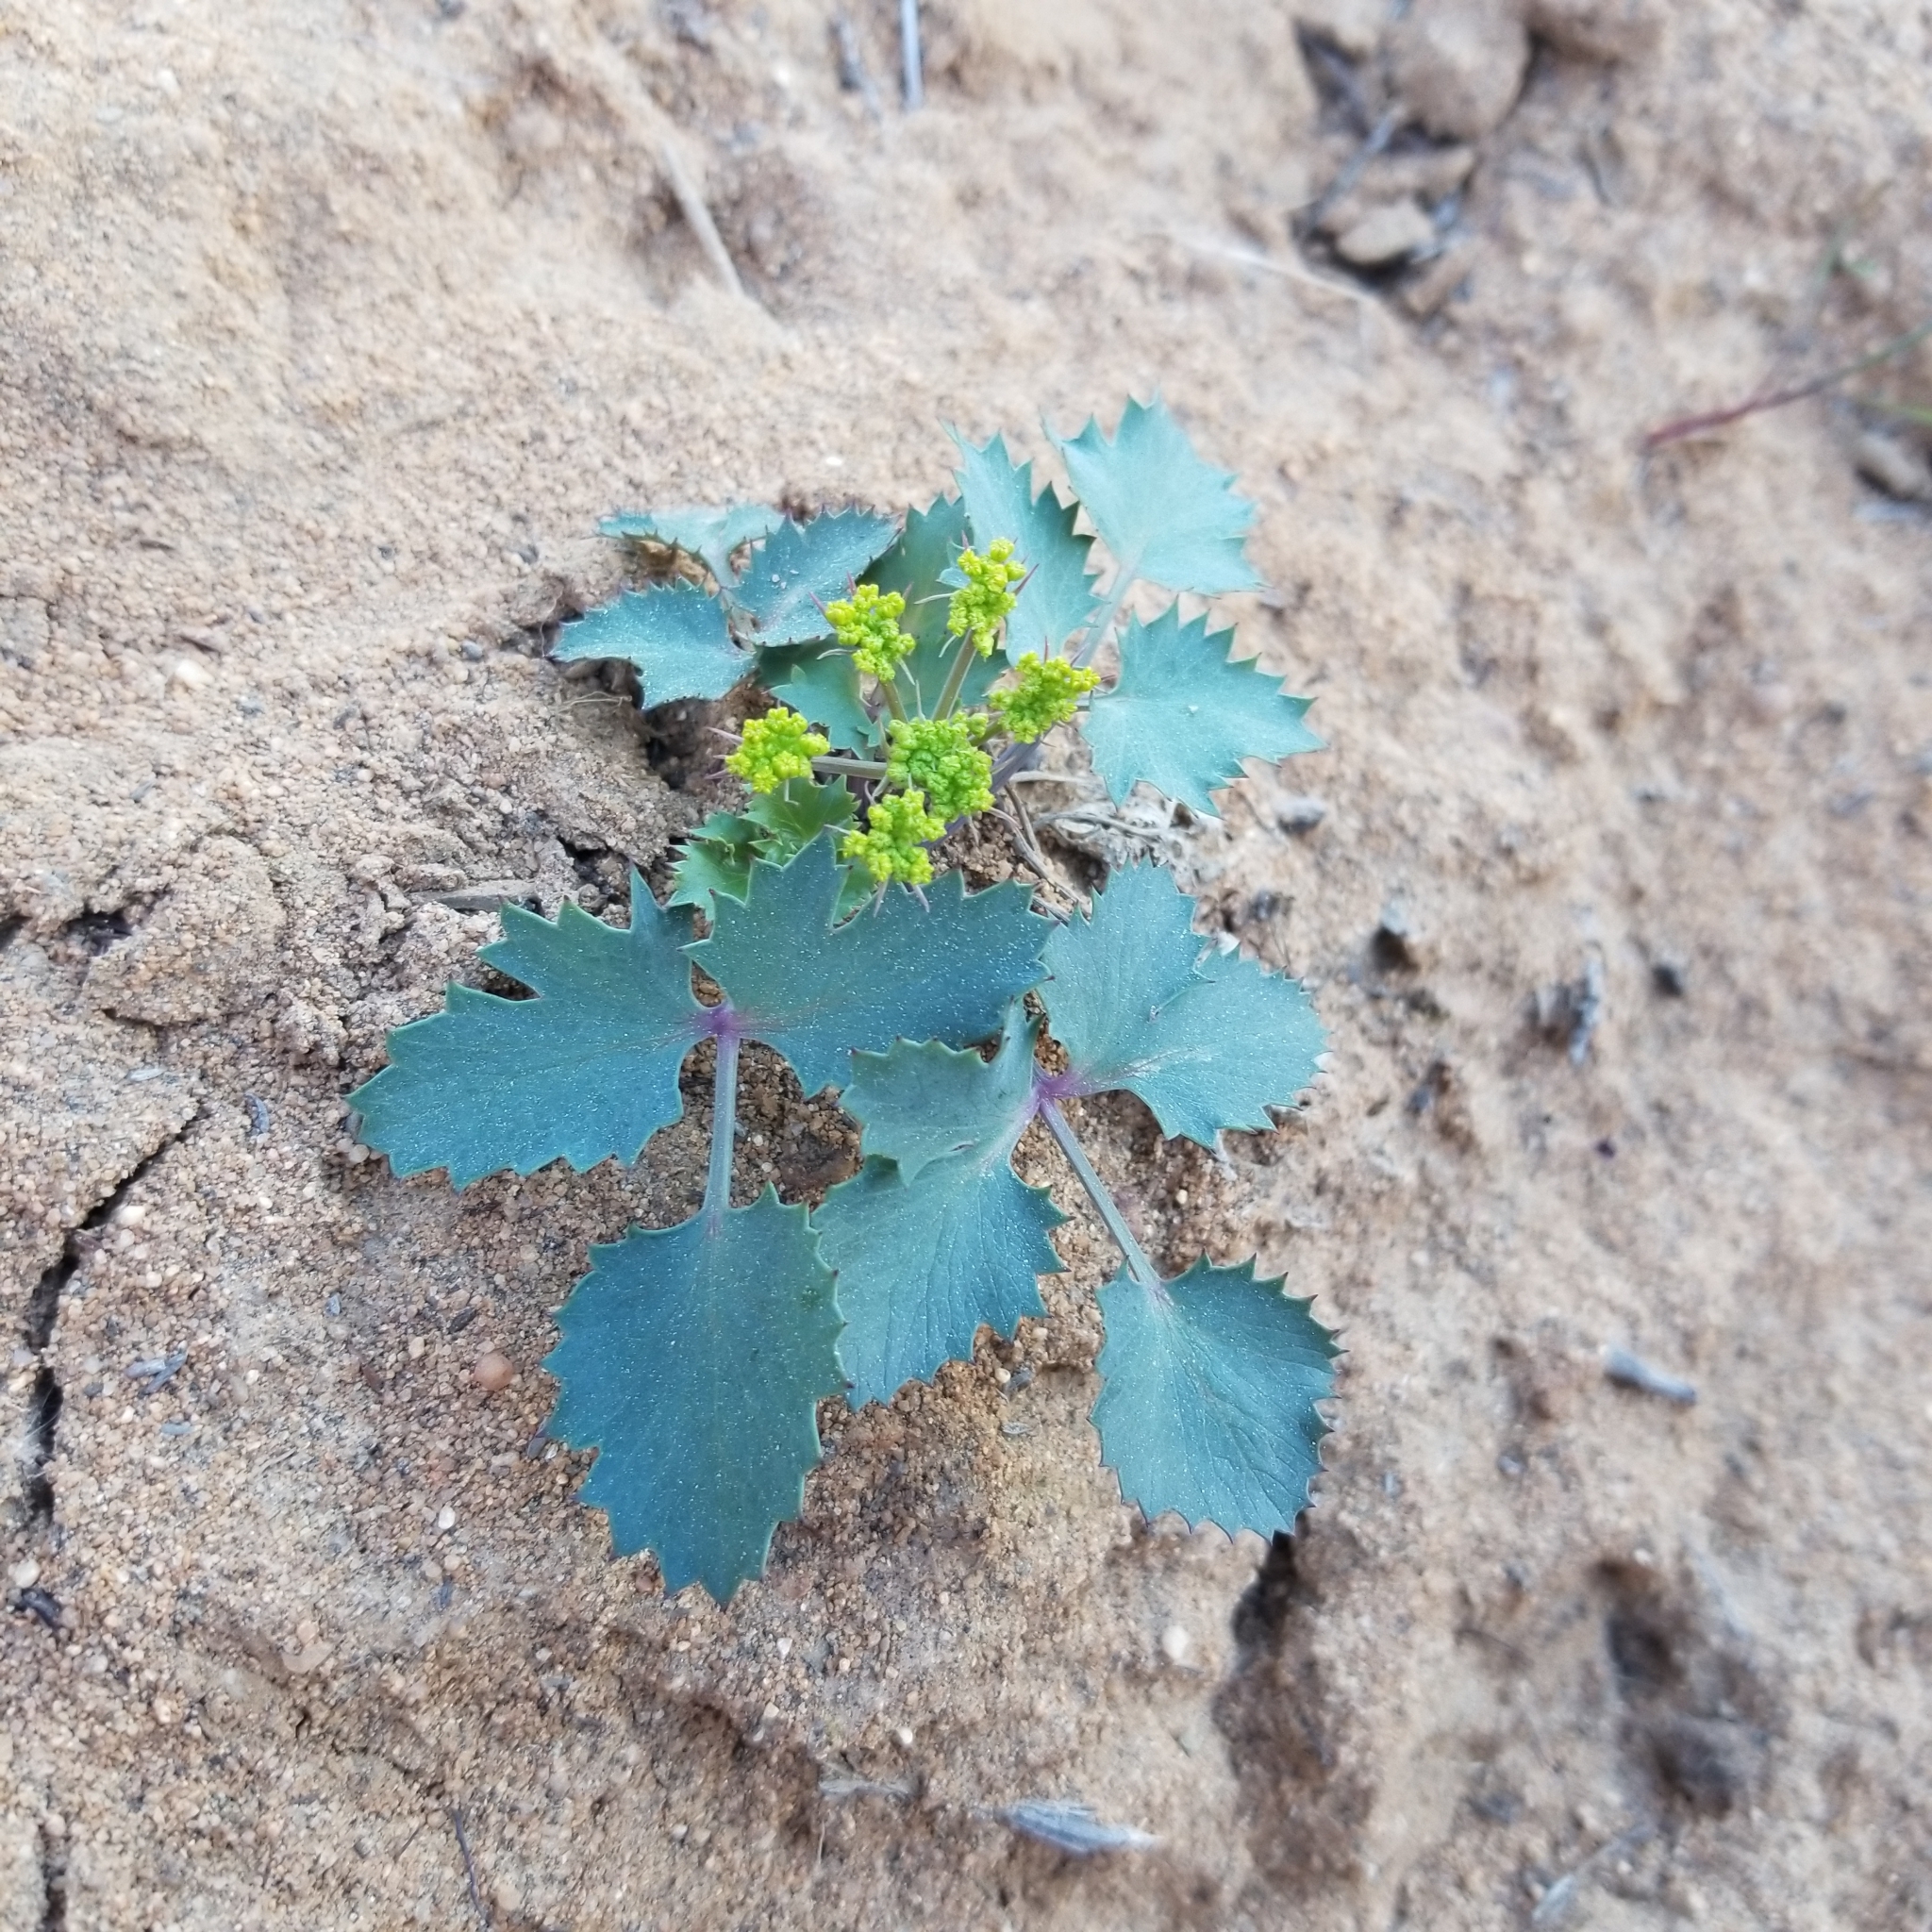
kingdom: Plantae
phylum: Tracheophyta
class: Magnoliopsida
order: Apiales
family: Apiaceae
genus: Lomatium
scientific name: Lomatium lucidum
